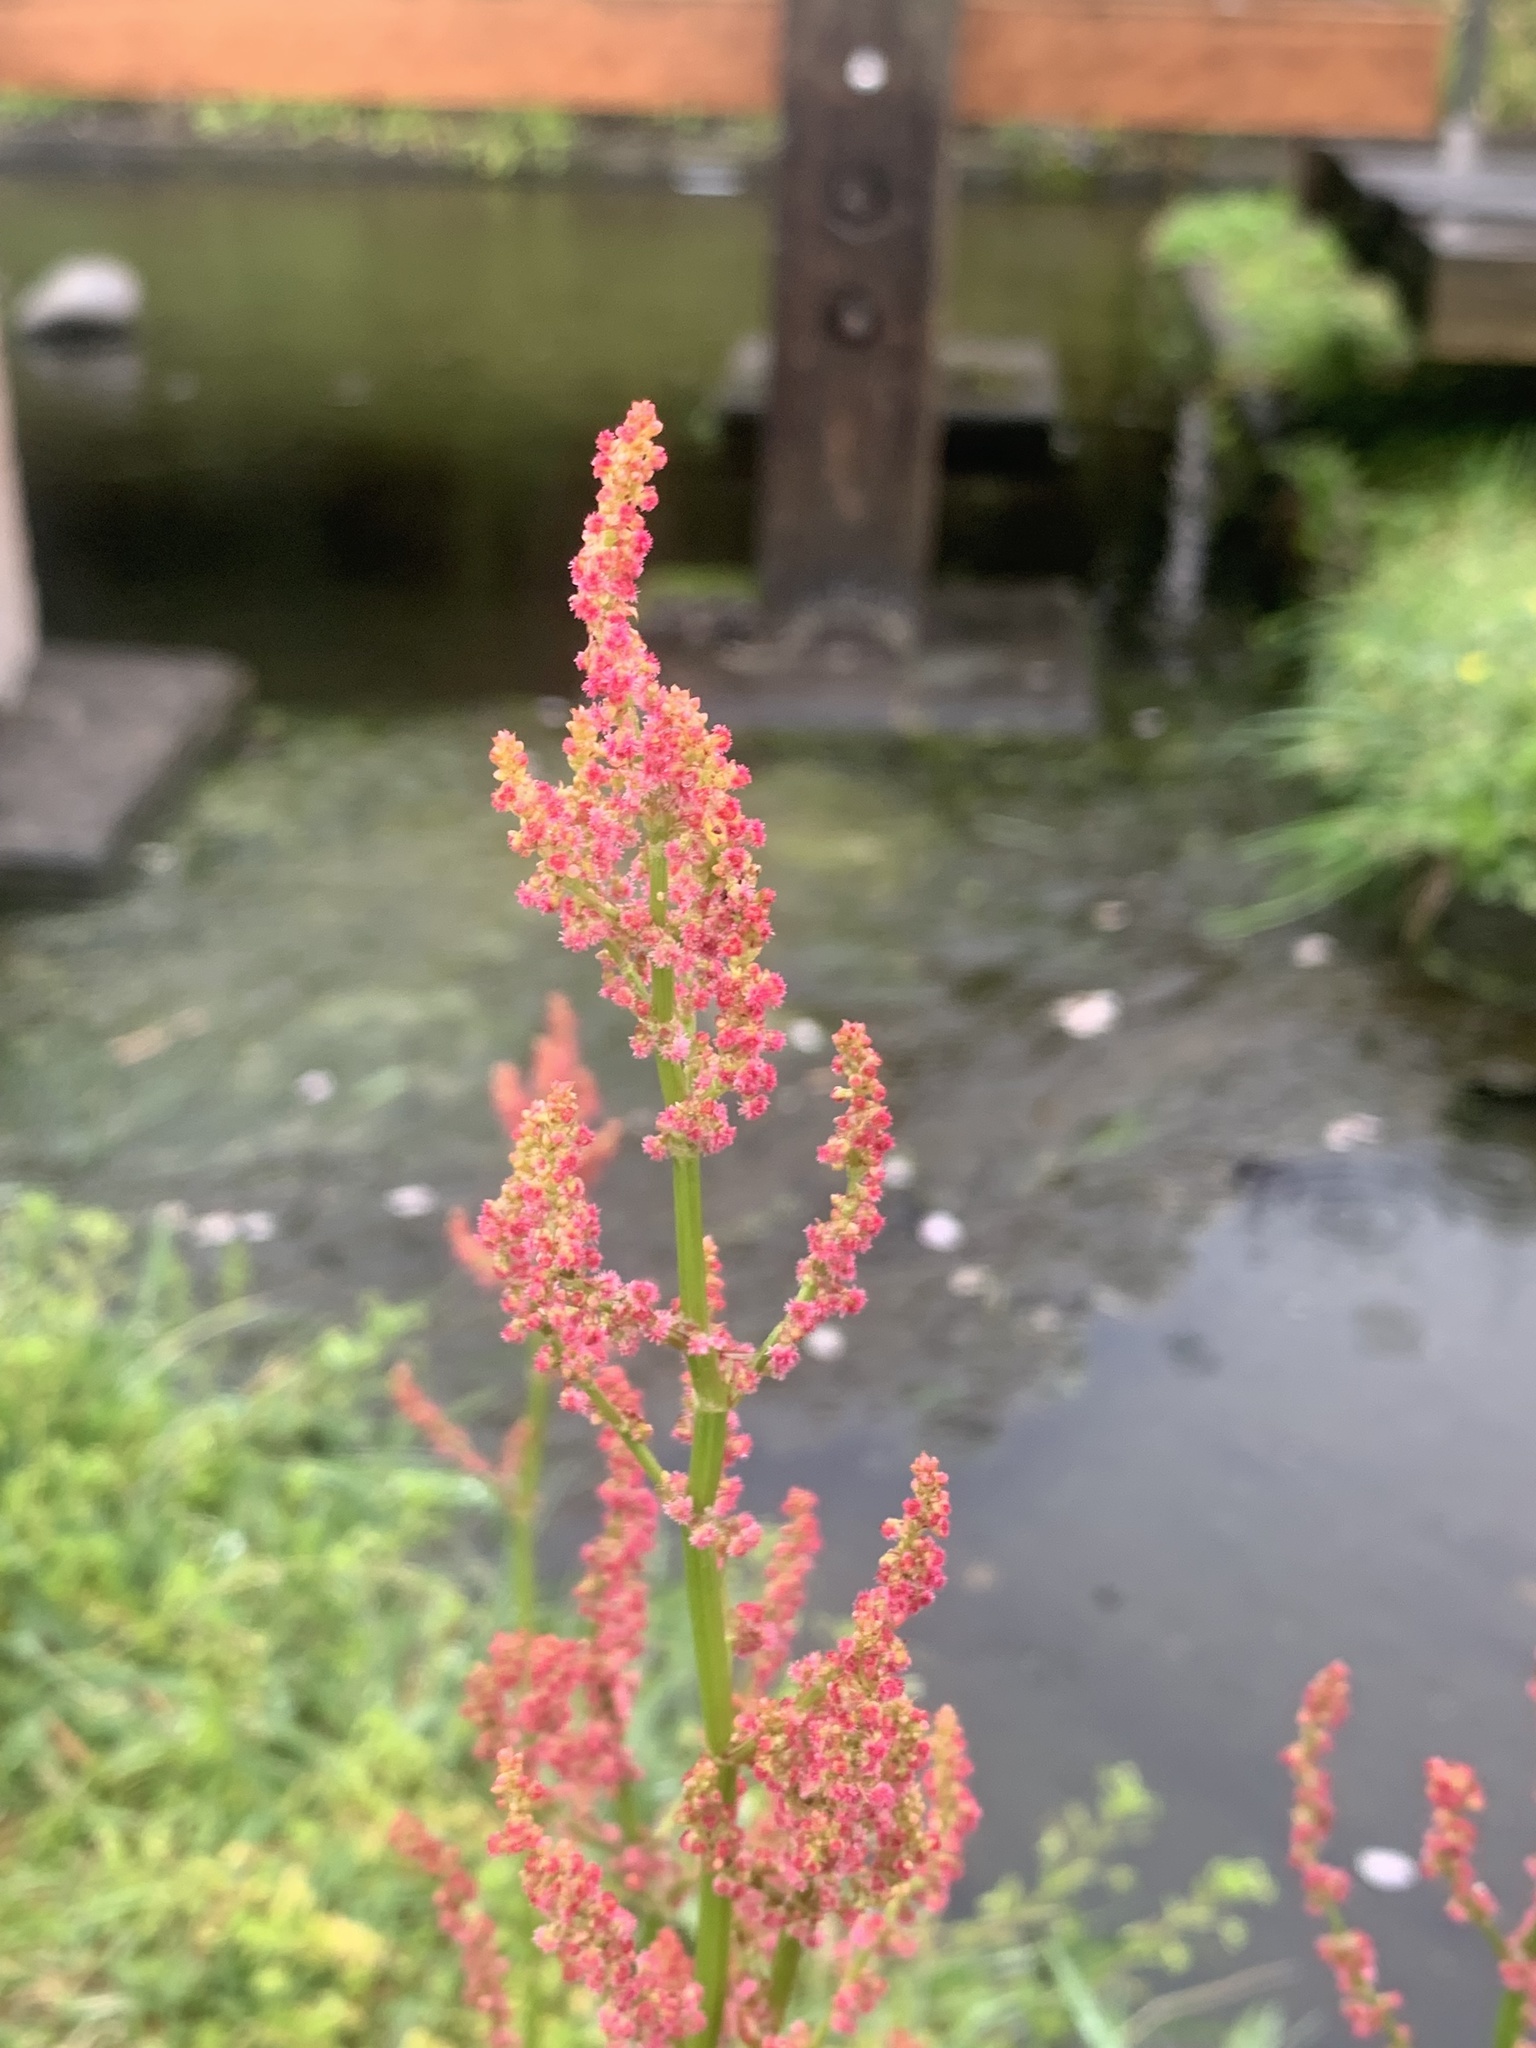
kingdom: Plantae
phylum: Tracheophyta
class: Magnoliopsida
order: Caryophyllales
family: Polygonaceae
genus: Rumex
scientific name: Rumex acetosa
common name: Garden sorrel
